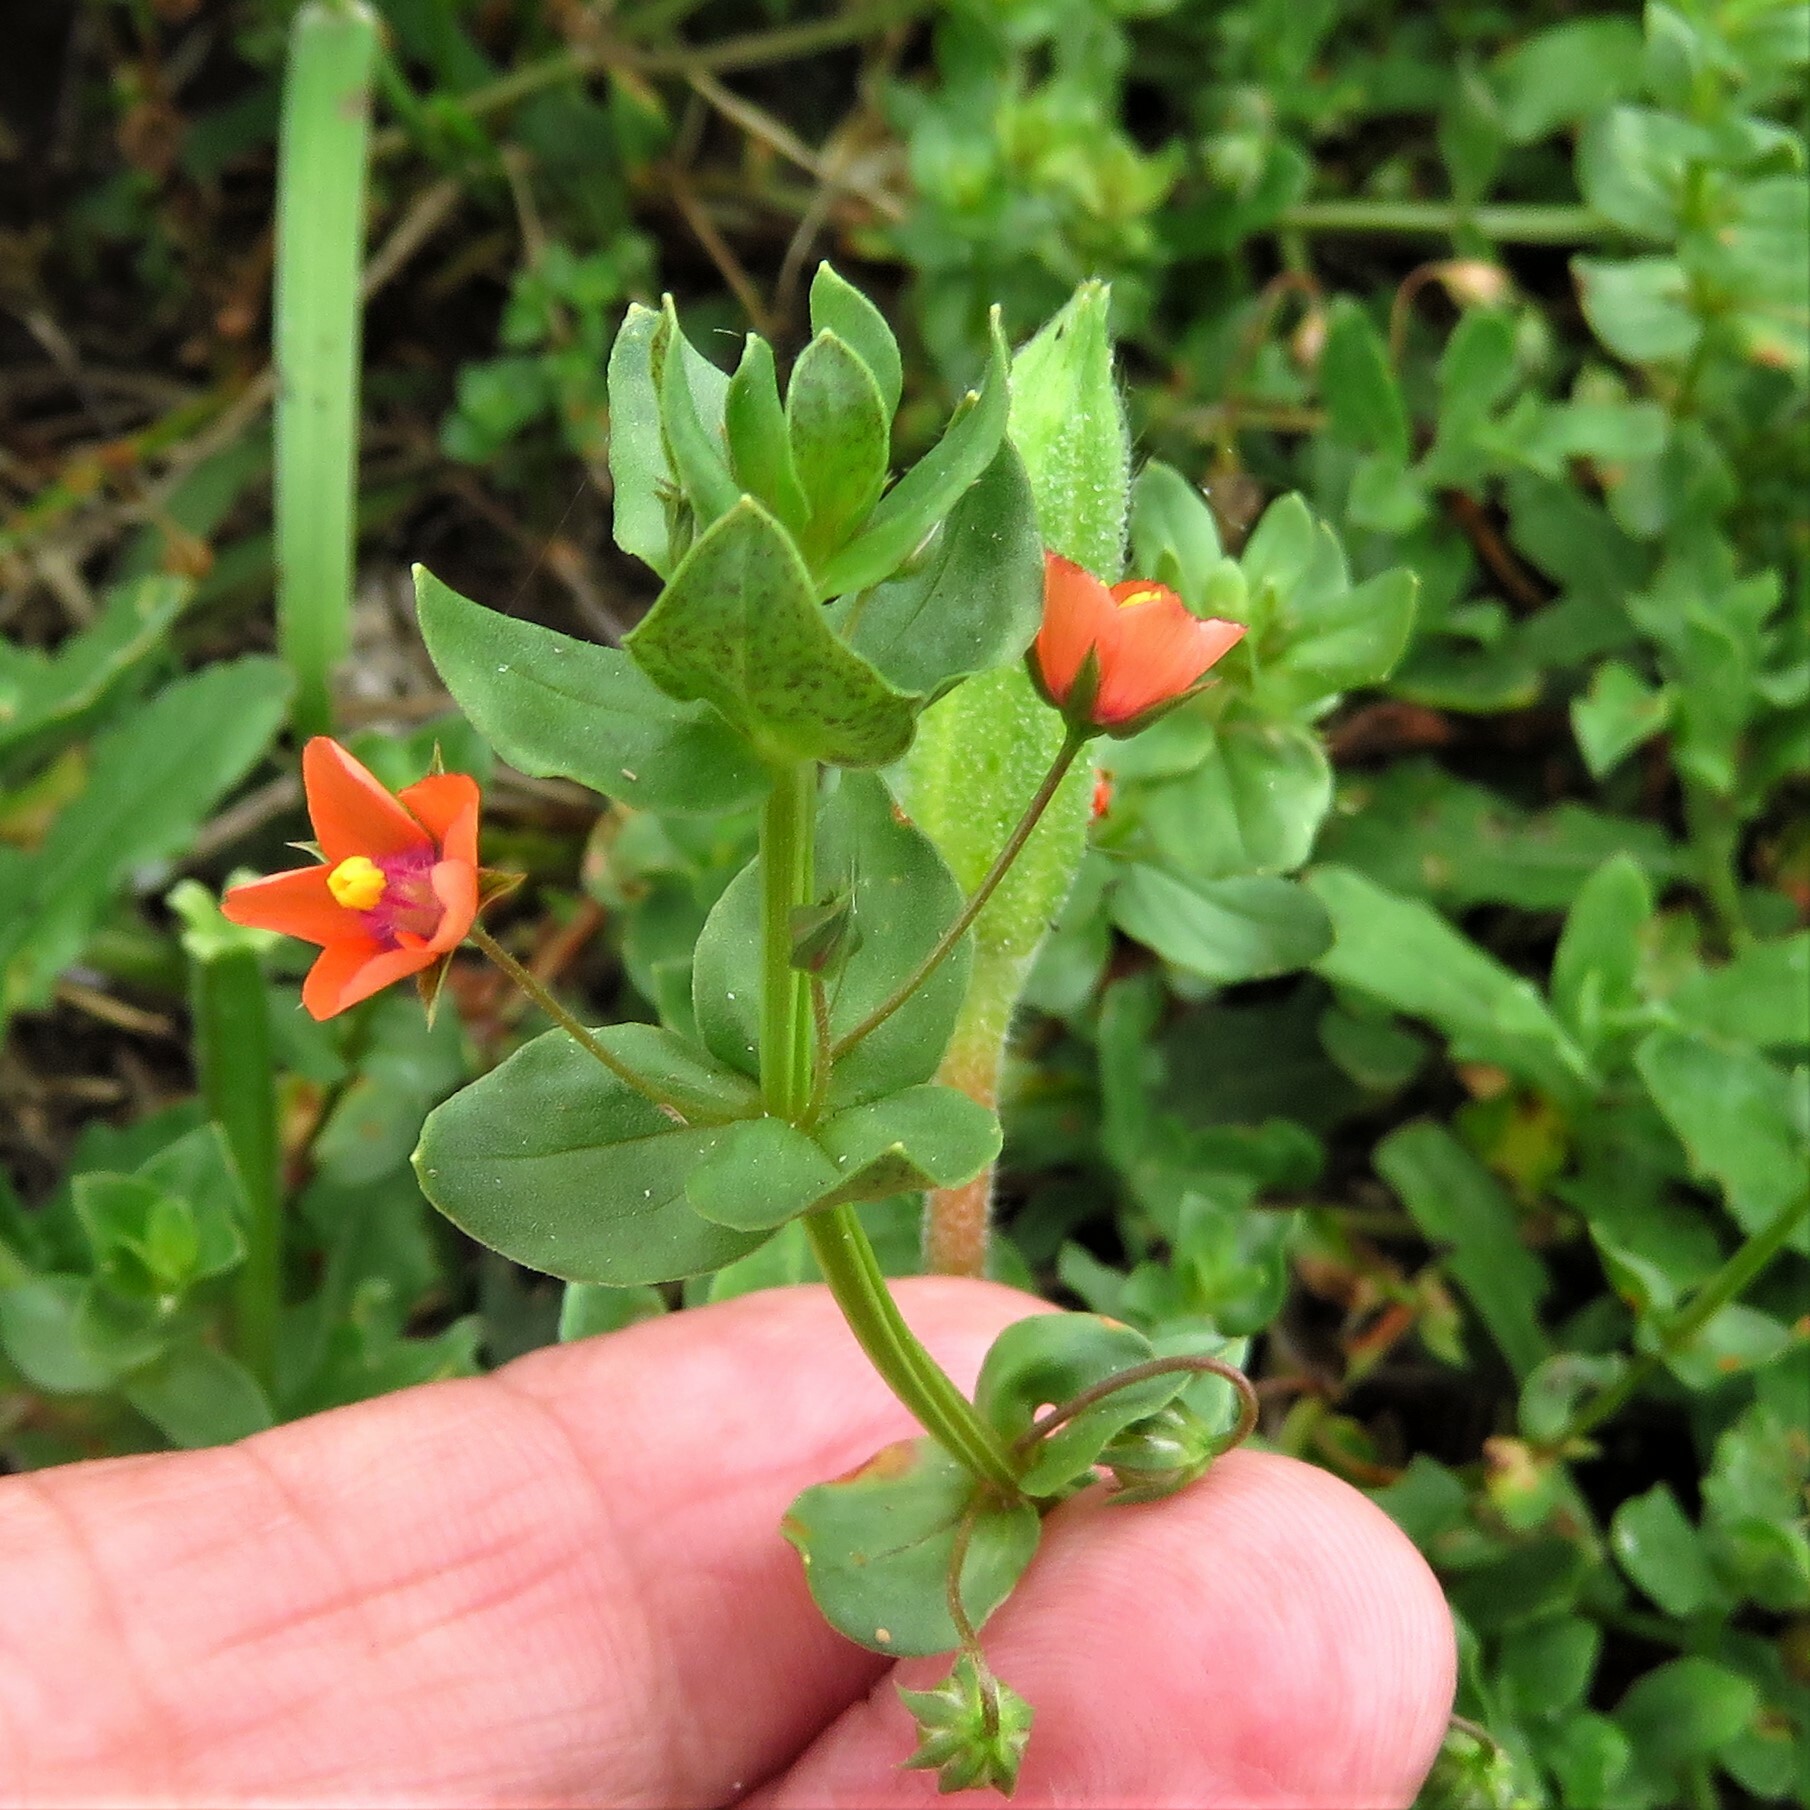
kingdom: Plantae
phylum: Tracheophyta
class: Magnoliopsida
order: Ericales
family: Primulaceae
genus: Lysimachia
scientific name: Lysimachia arvensis
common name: Scarlet pimpernel
